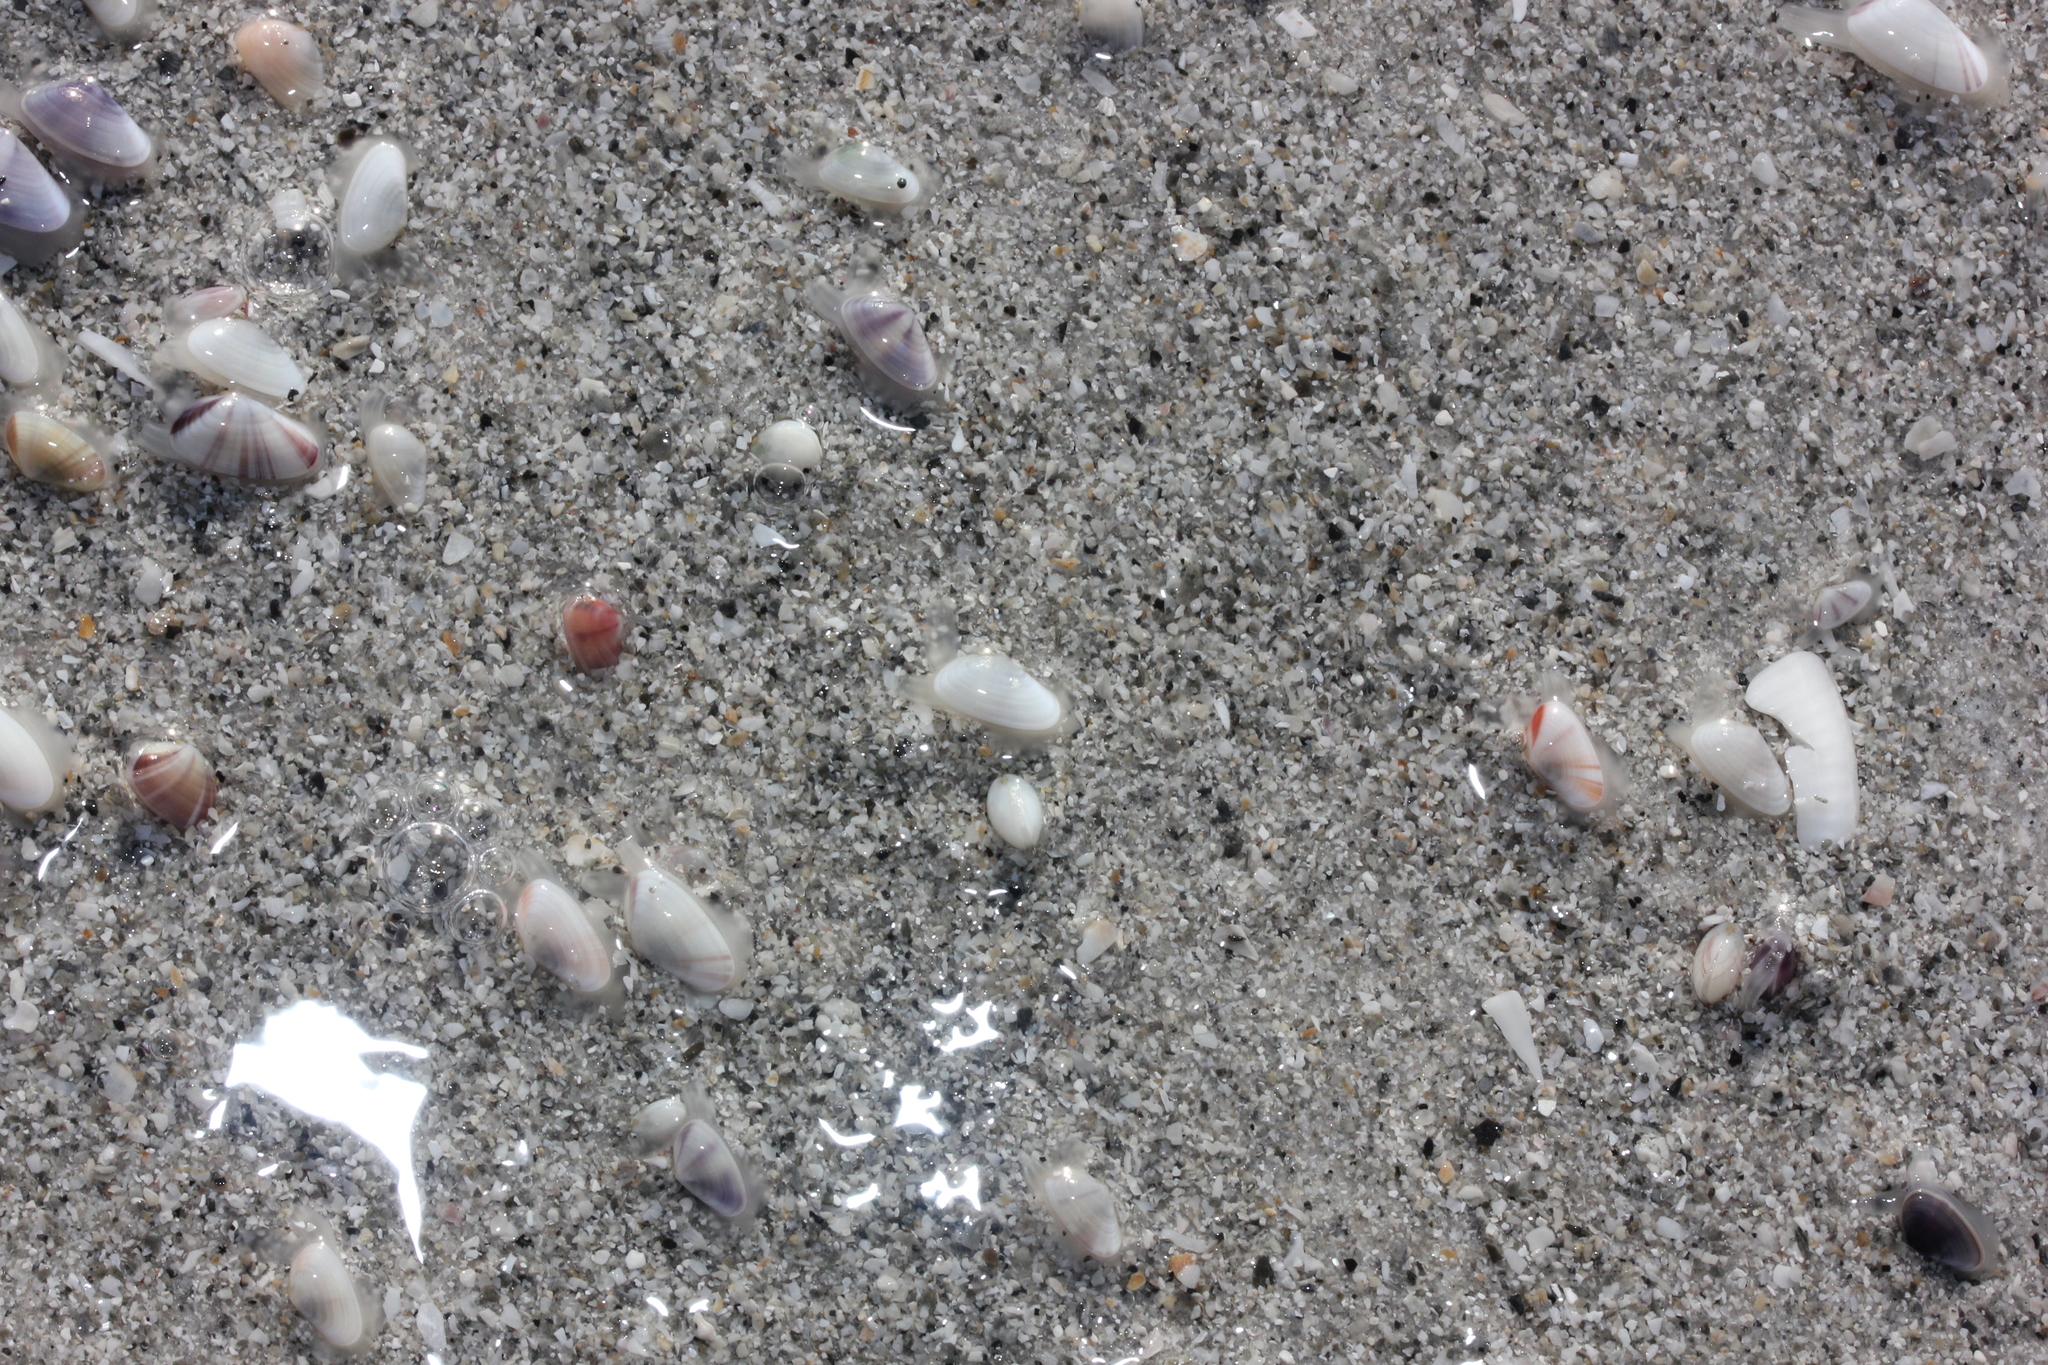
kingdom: Animalia
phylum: Mollusca
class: Bivalvia
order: Cardiida
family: Donacidae
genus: Donax
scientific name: Donax variabilis
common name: Butterfly shell
